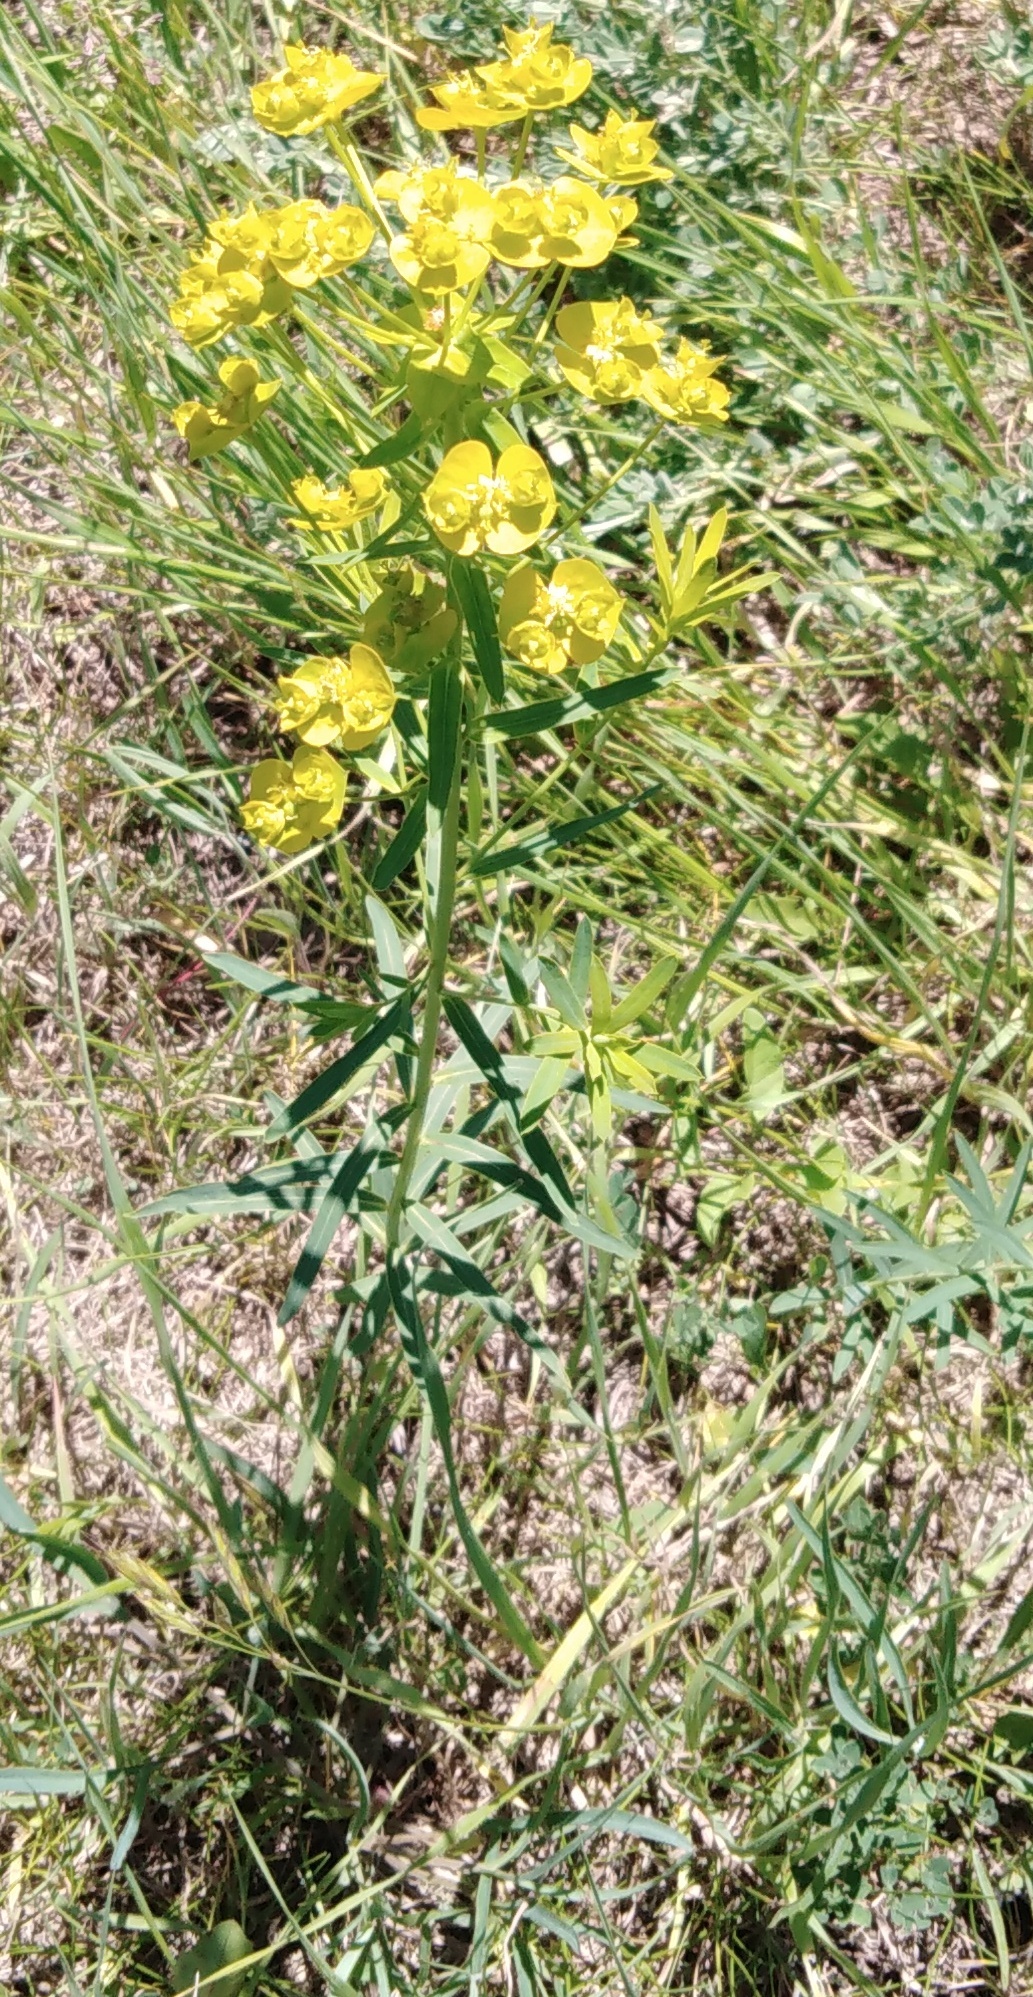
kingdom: Plantae
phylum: Tracheophyta
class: Magnoliopsida
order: Malpighiales
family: Euphorbiaceae
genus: Euphorbia
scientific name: Euphorbia virgata
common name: Leafy spurge
